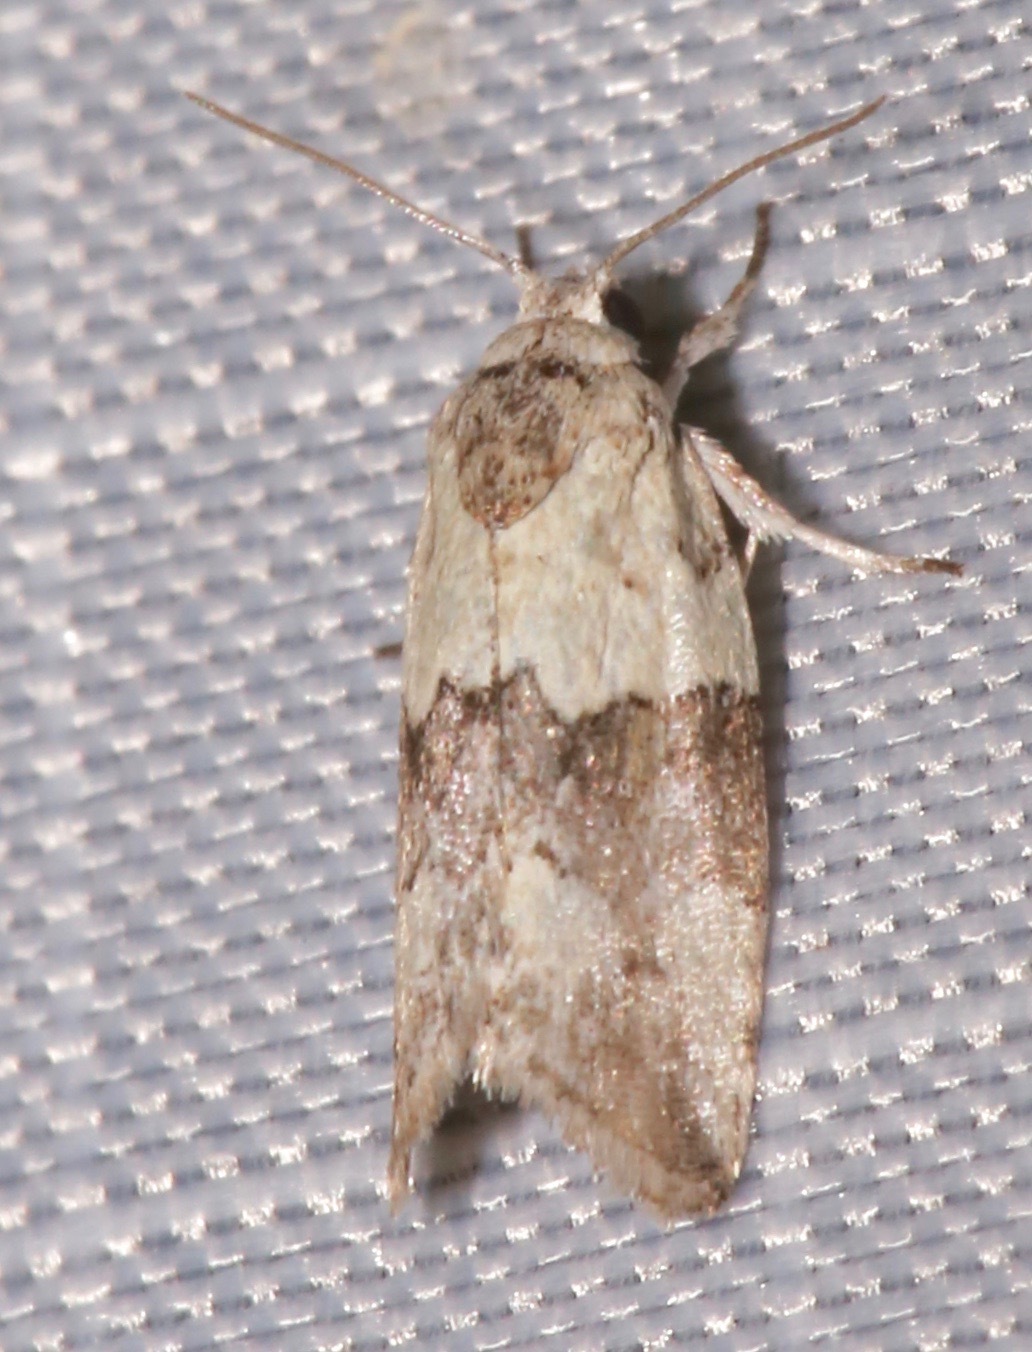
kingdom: Animalia
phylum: Arthropoda
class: Insecta
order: Lepidoptera
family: Nolidae
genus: Afrida
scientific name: Afrida ydatodes
